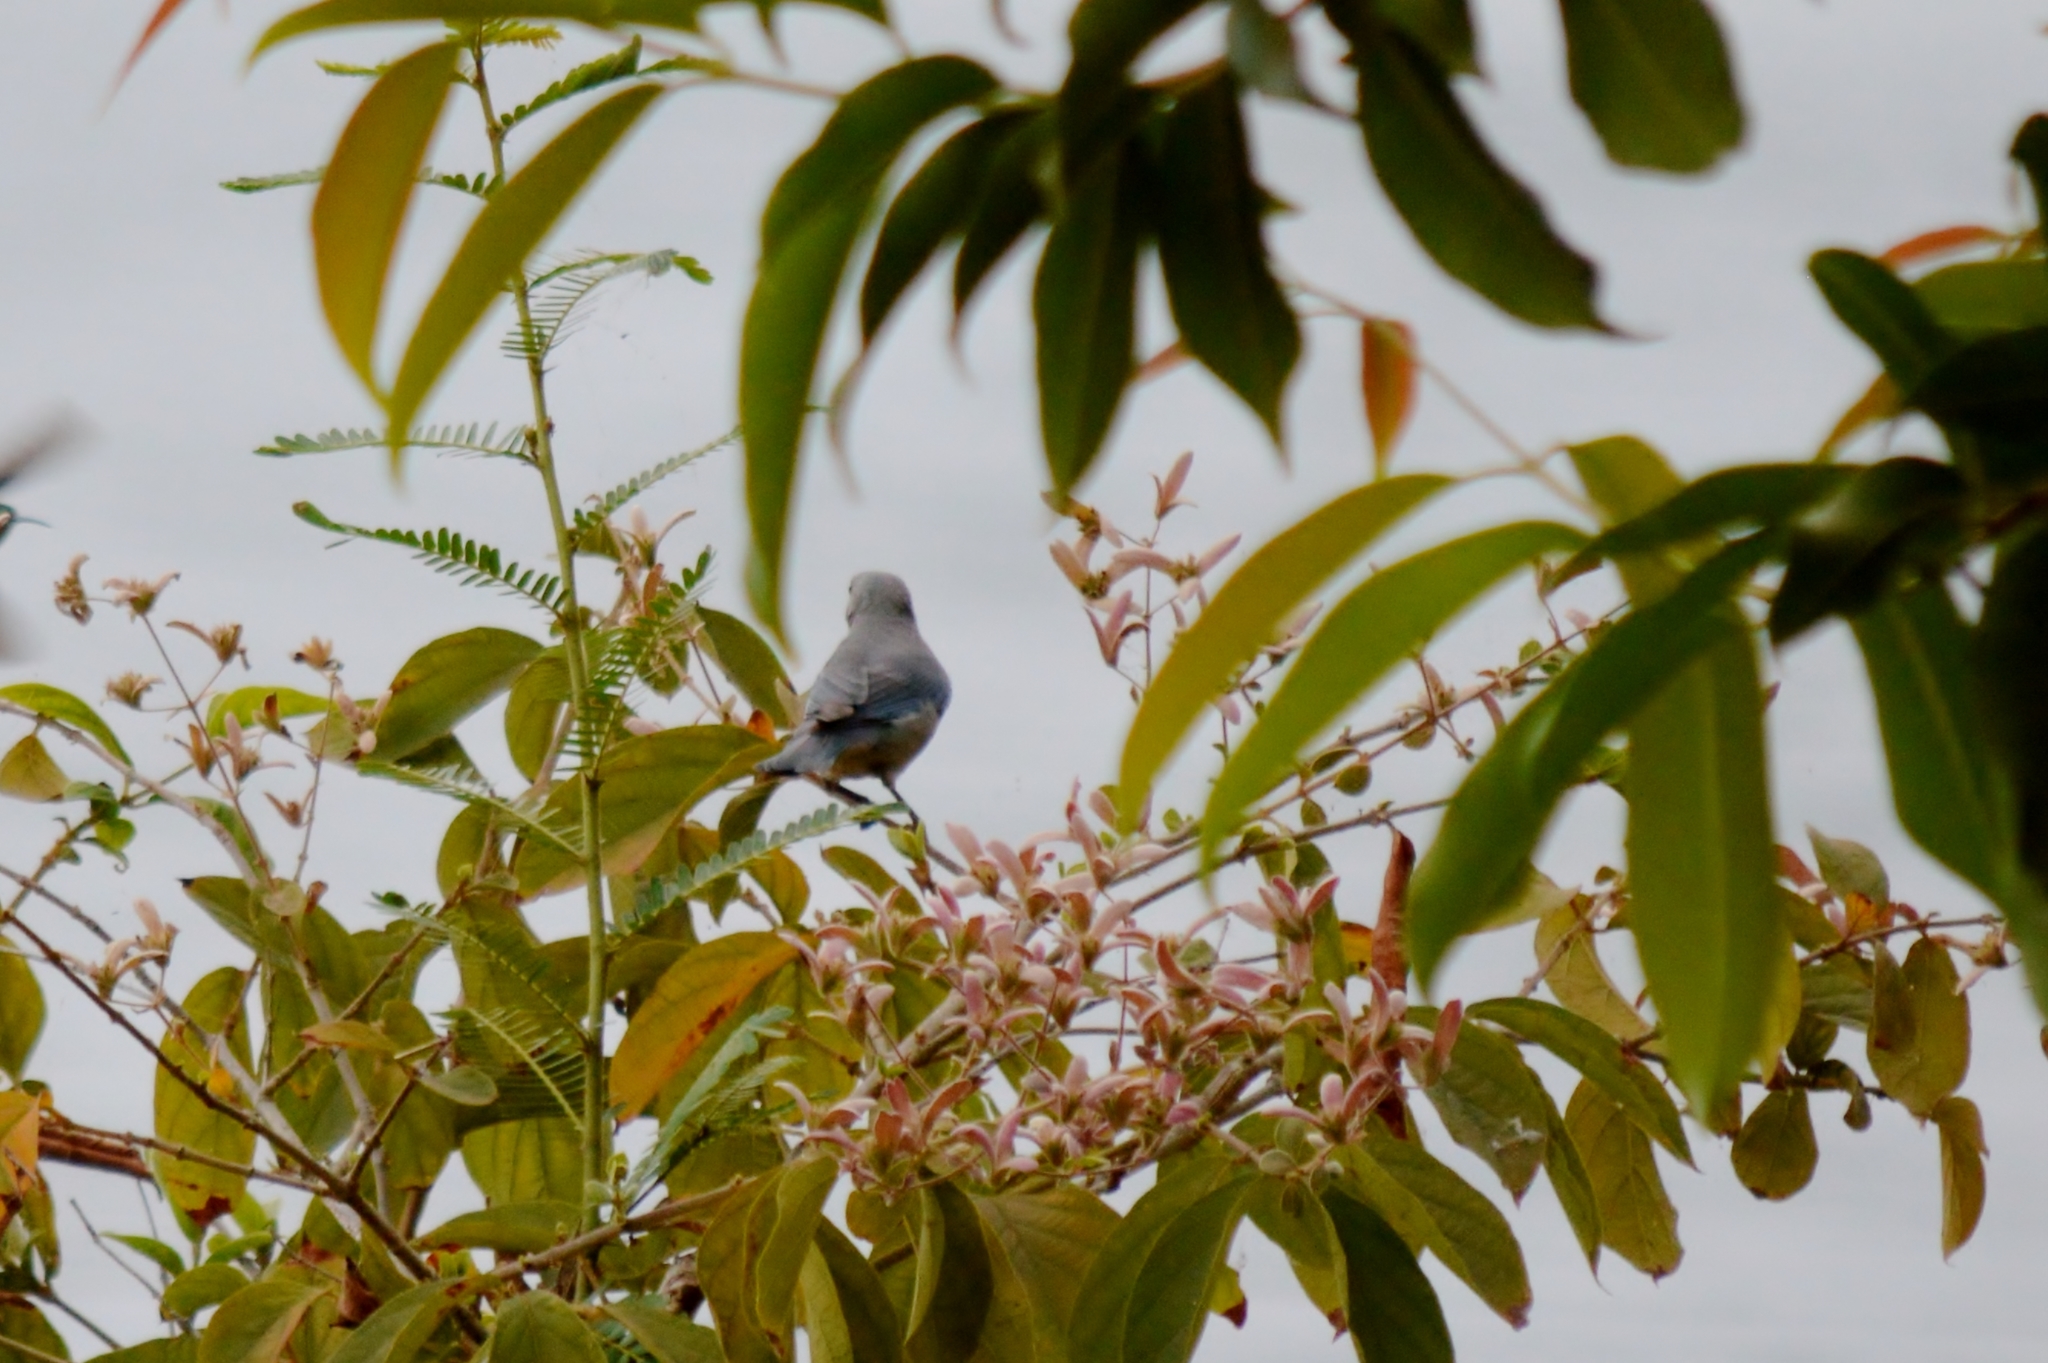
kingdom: Animalia
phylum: Chordata
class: Aves
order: Passeriformes
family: Thraupidae
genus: Thraupis
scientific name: Thraupis sayaca
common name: Sayaca tanager
